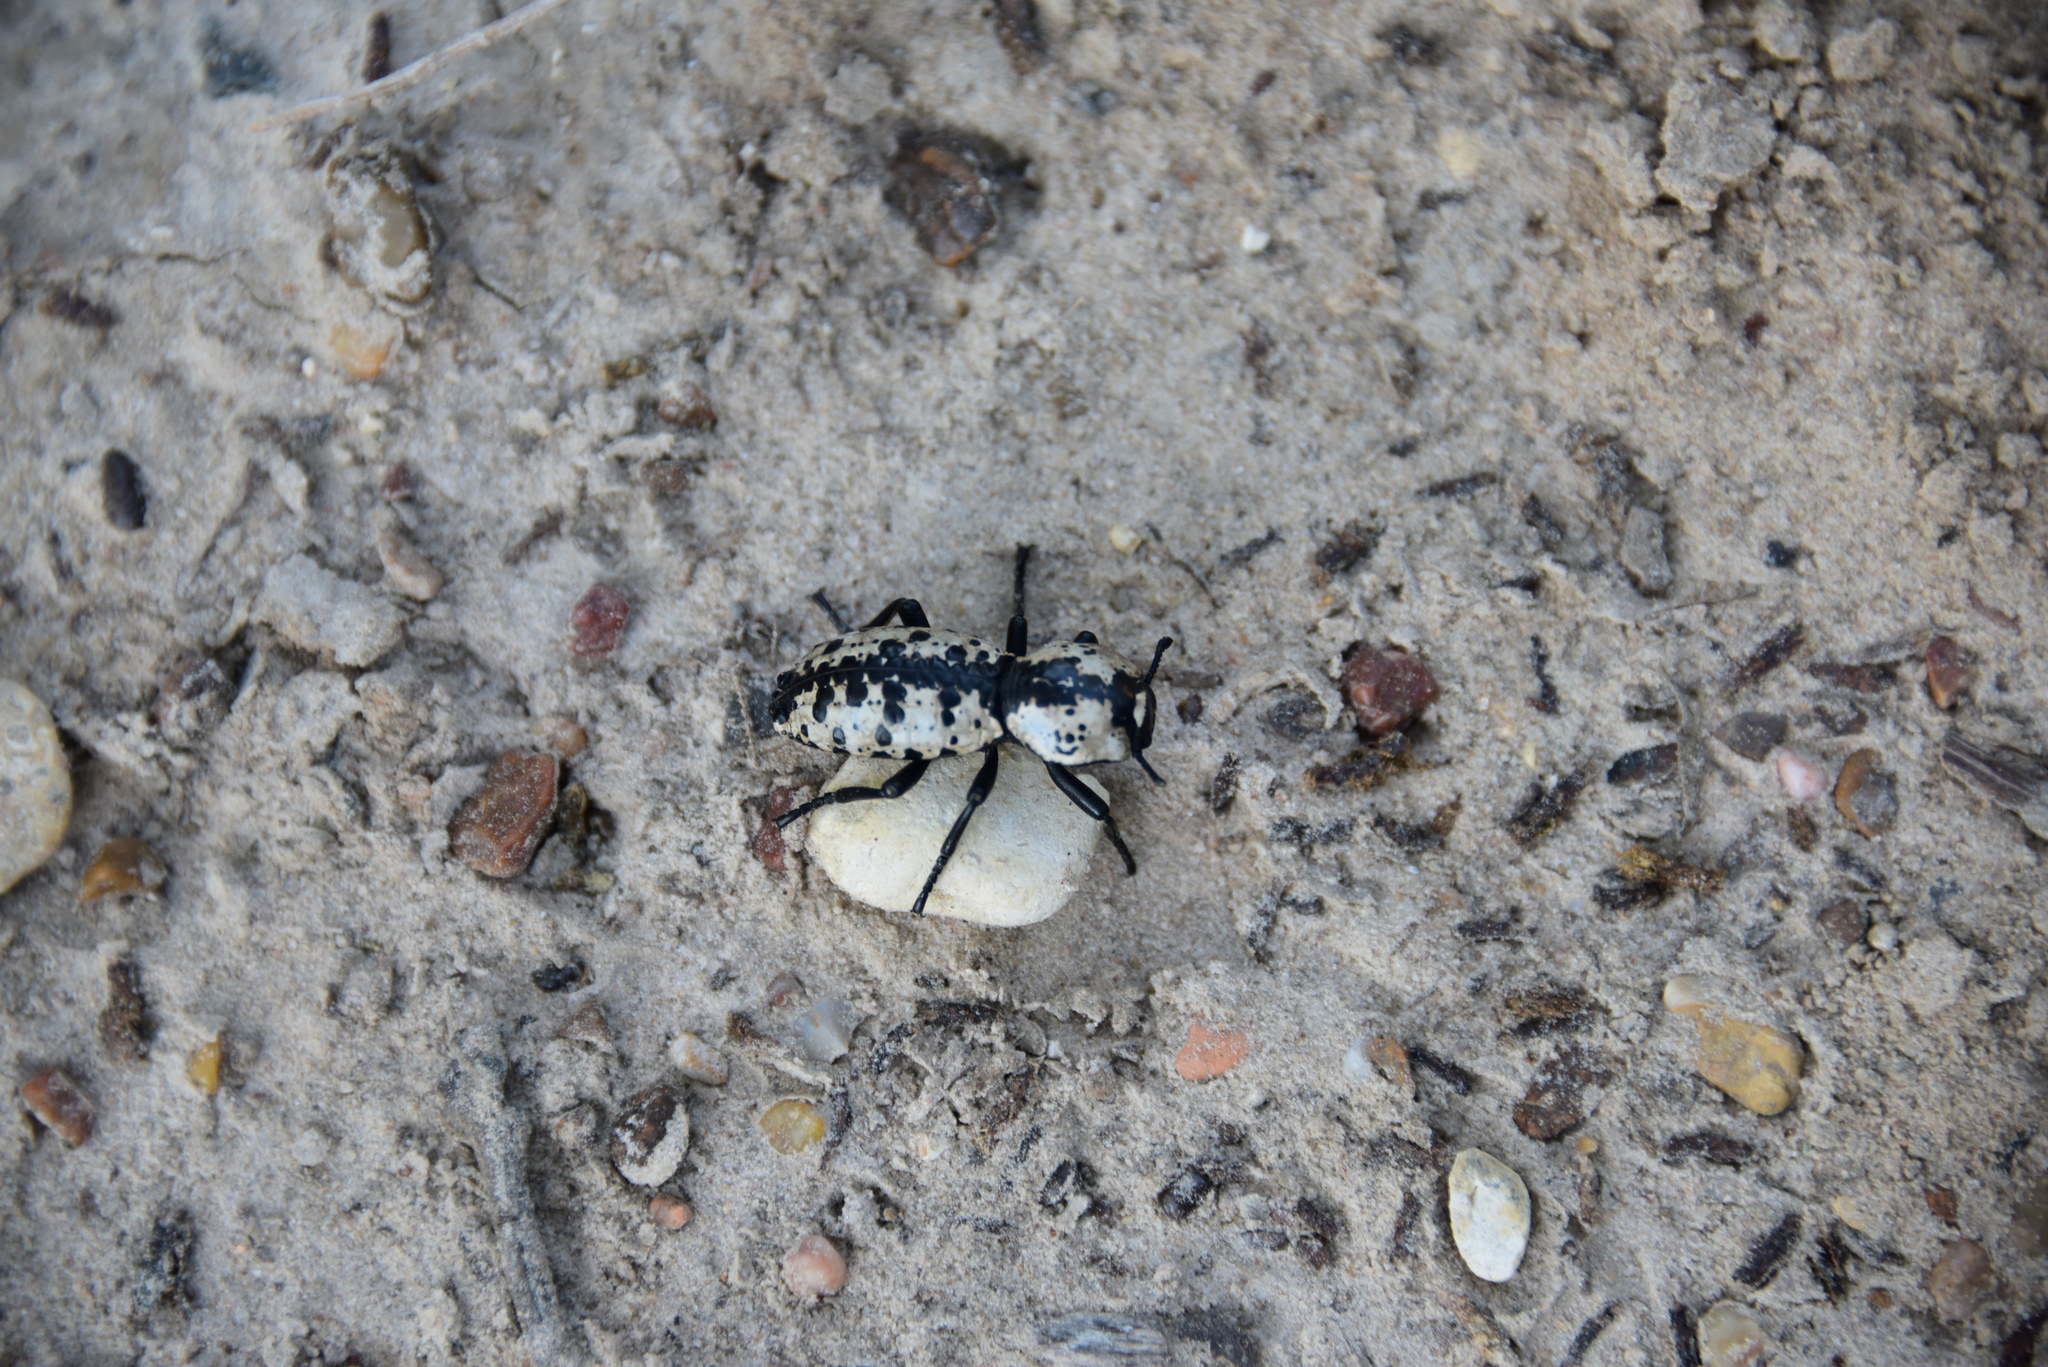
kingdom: Animalia
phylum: Arthropoda
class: Insecta
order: Coleoptera
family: Zopheridae
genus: Zopherus
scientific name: Zopherus nodulosus
